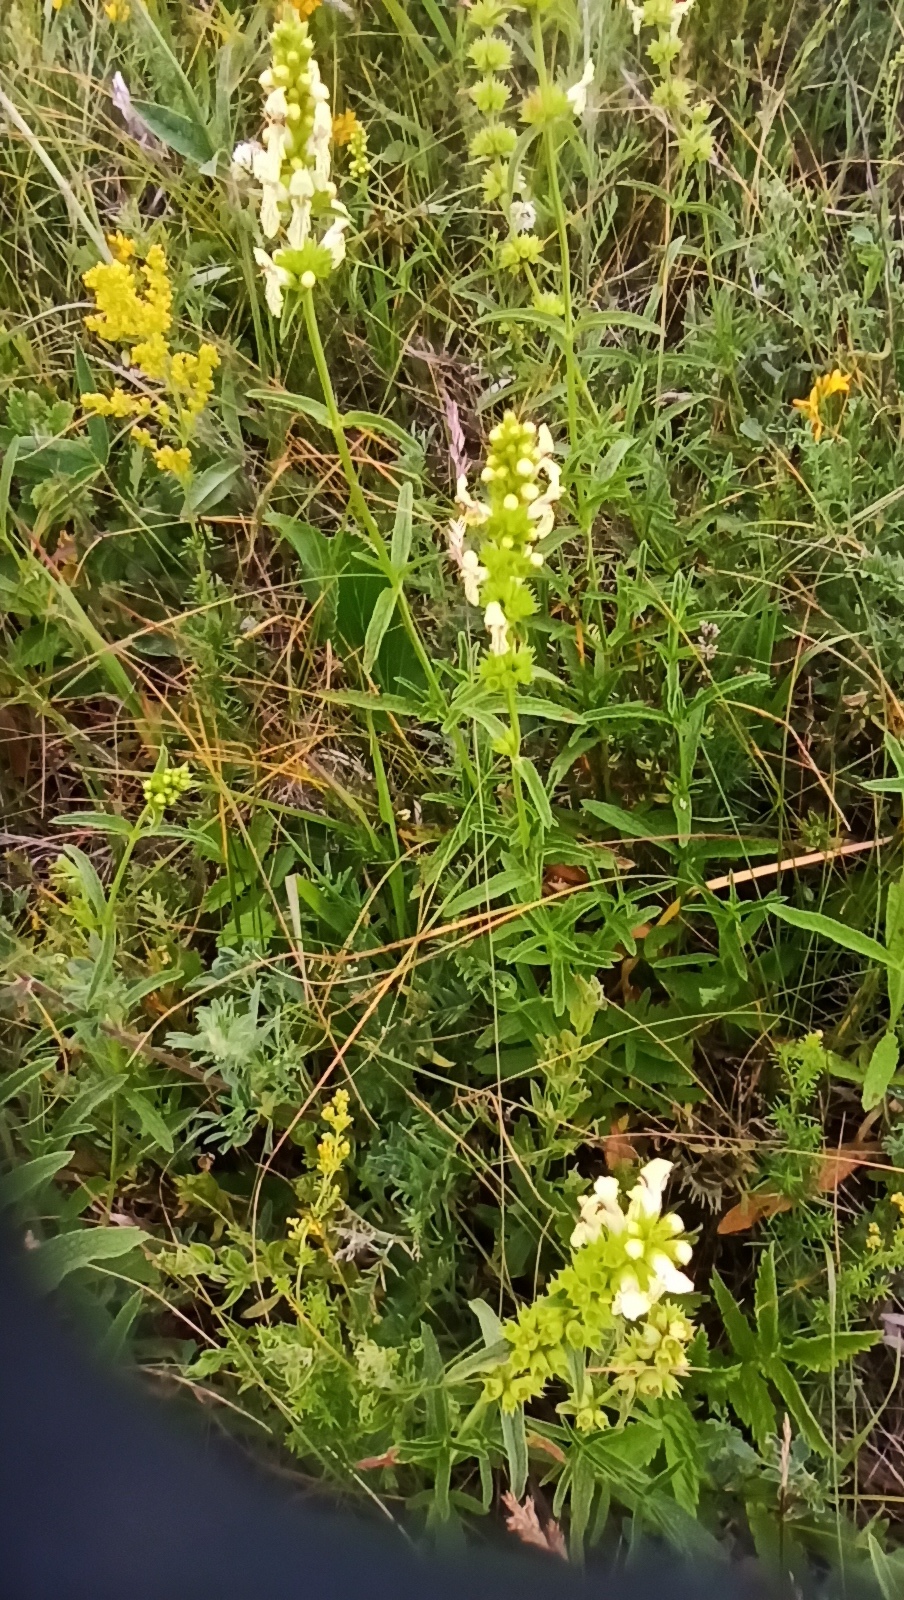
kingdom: Plantae
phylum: Tracheophyta
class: Magnoliopsida
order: Lamiales
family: Lamiaceae
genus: Stachys
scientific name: Stachys recta
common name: Perennial yellow-woundwort
